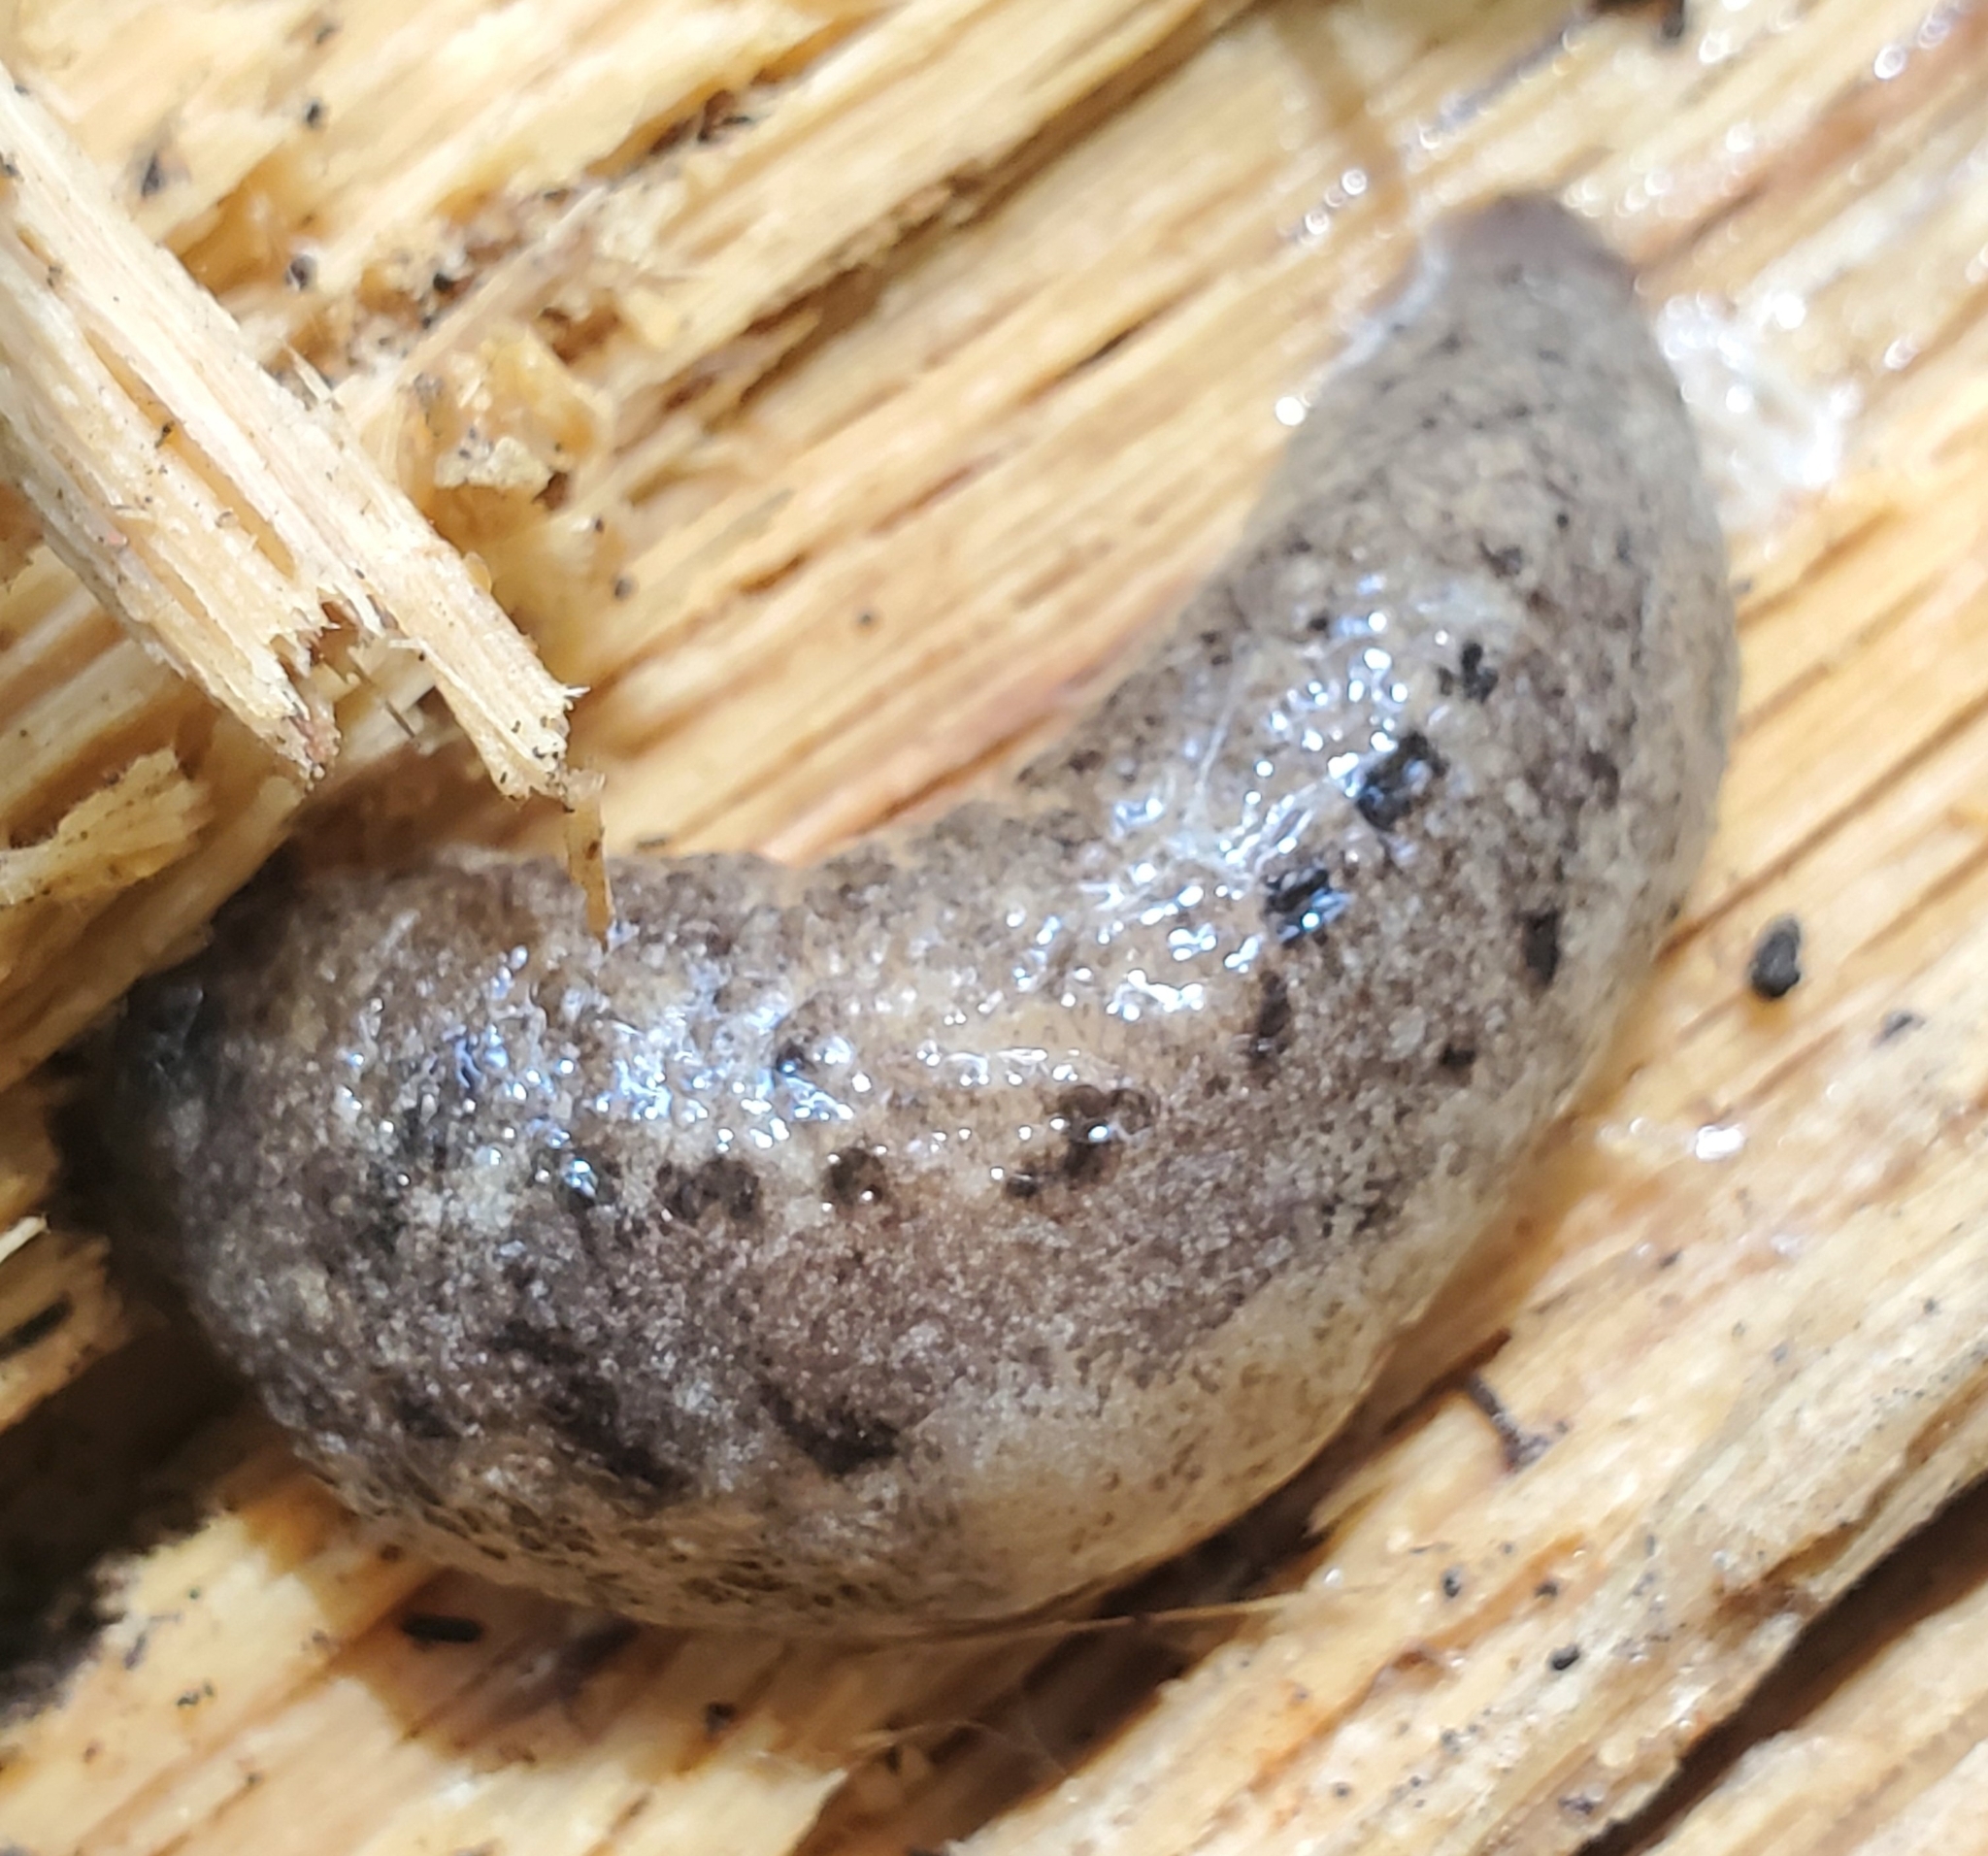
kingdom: Animalia
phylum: Mollusca
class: Gastropoda
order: Stylommatophora
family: Philomycidae
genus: Philomycus
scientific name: Philomycus carolinianus
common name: Carolina mantleslug
